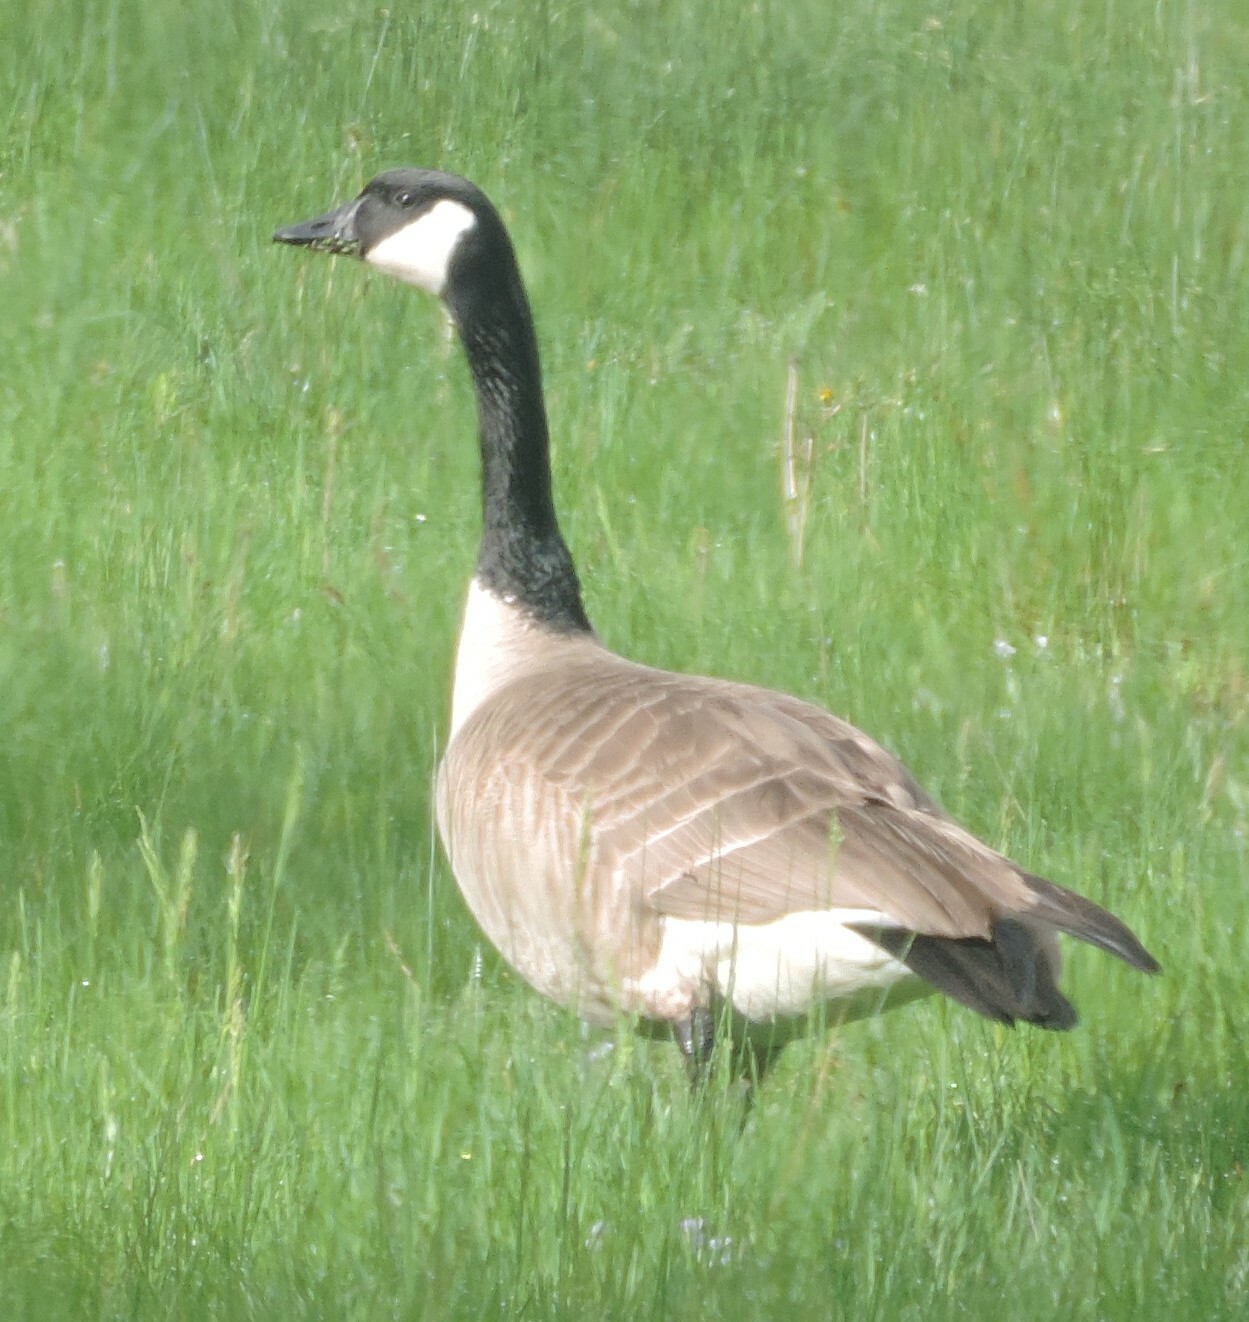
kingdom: Animalia
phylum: Chordata
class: Aves
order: Anseriformes
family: Anatidae
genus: Branta
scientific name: Branta canadensis
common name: Canada goose
